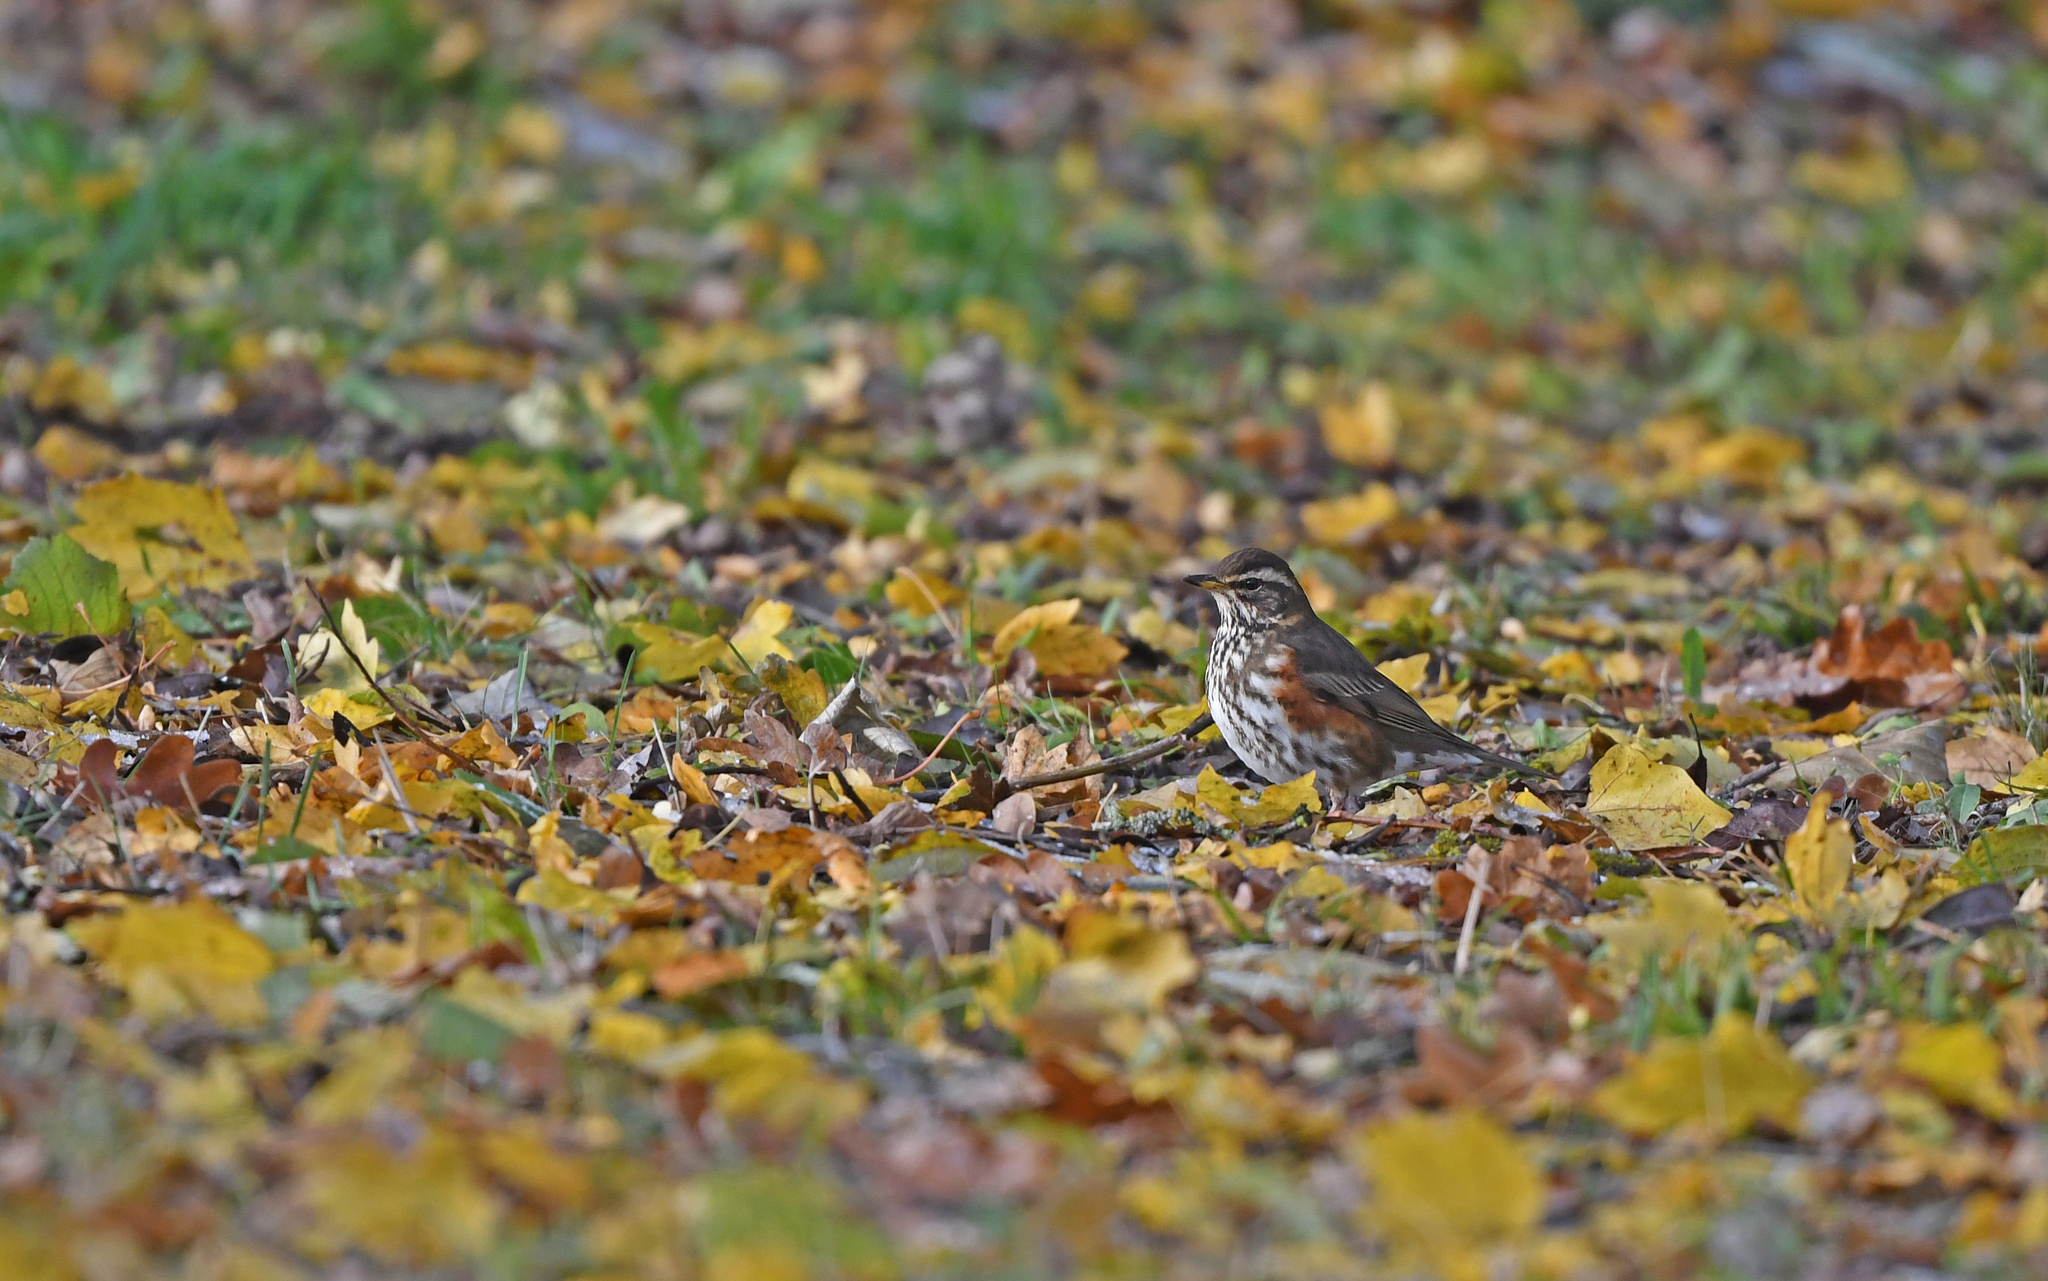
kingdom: Animalia
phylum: Chordata
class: Aves
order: Passeriformes
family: Turdidae
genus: Turdus
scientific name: Turdus iliacus
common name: Redwing
